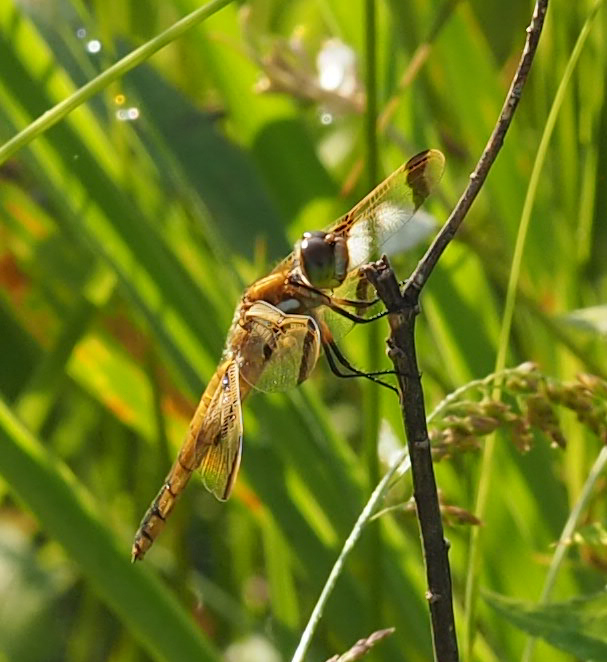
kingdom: Animalia
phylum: Arthropoda
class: Insecta
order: Odonata
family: Libellulidae
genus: Libellula
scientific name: Libellula semifasciata
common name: Painted skimmer
